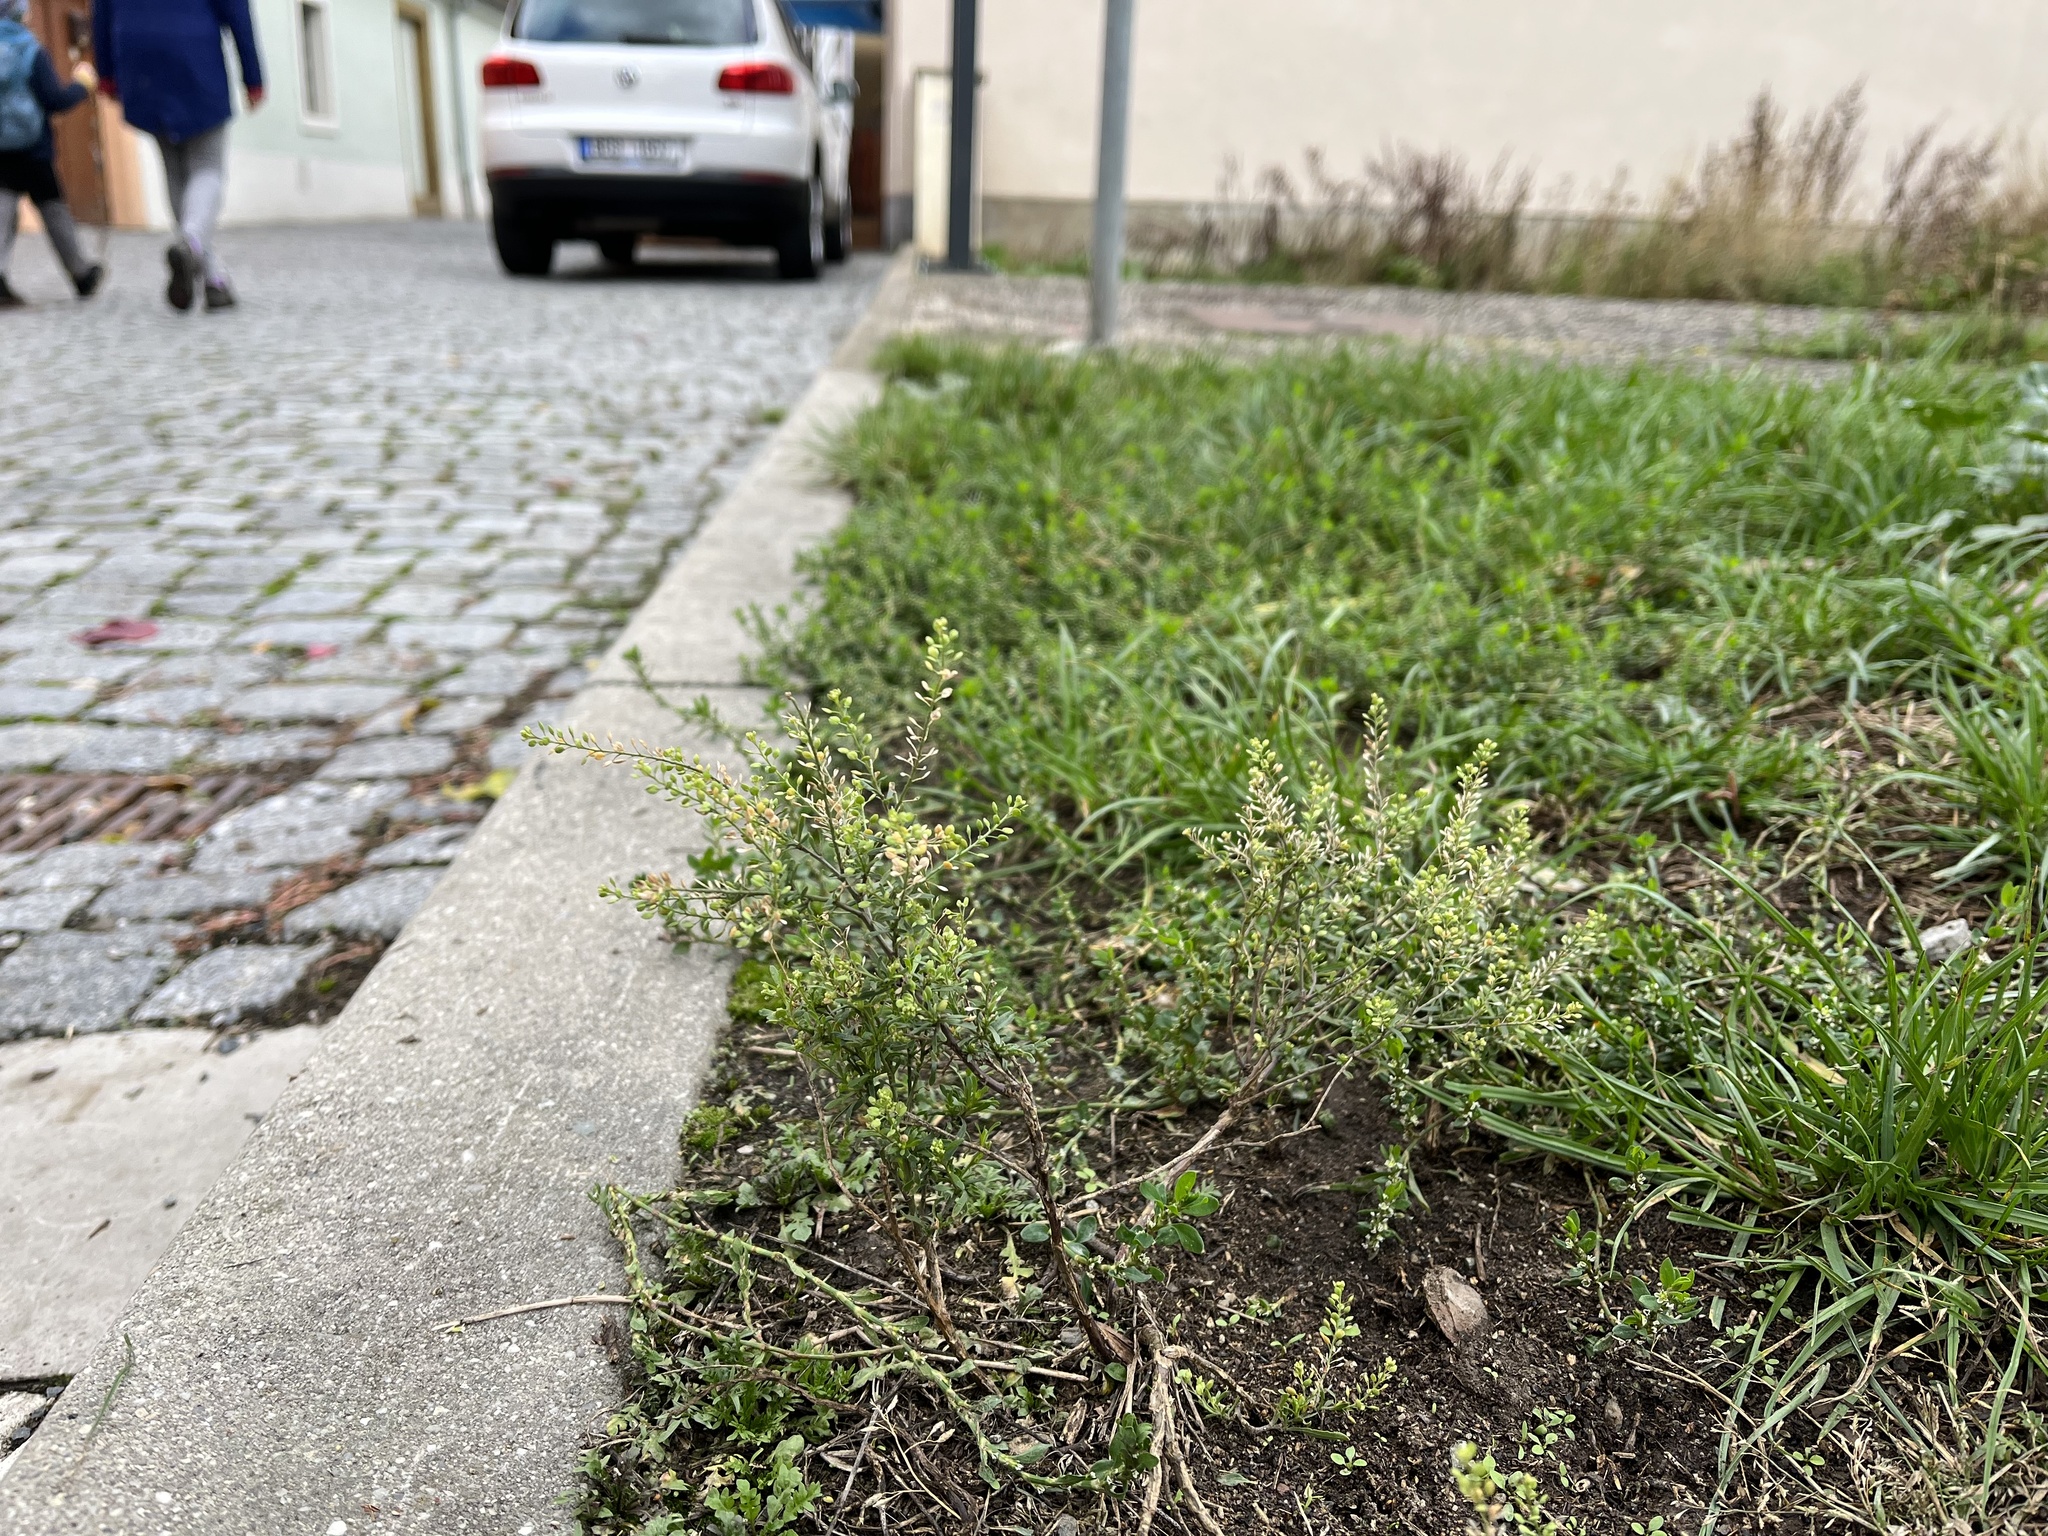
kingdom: Plantae
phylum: Tracheophyta
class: Magnoliopsida
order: Brassicales
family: Brassicaceae
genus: Lepidium
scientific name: Lepidium ruderale
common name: Narrow-leaved pepperwort
